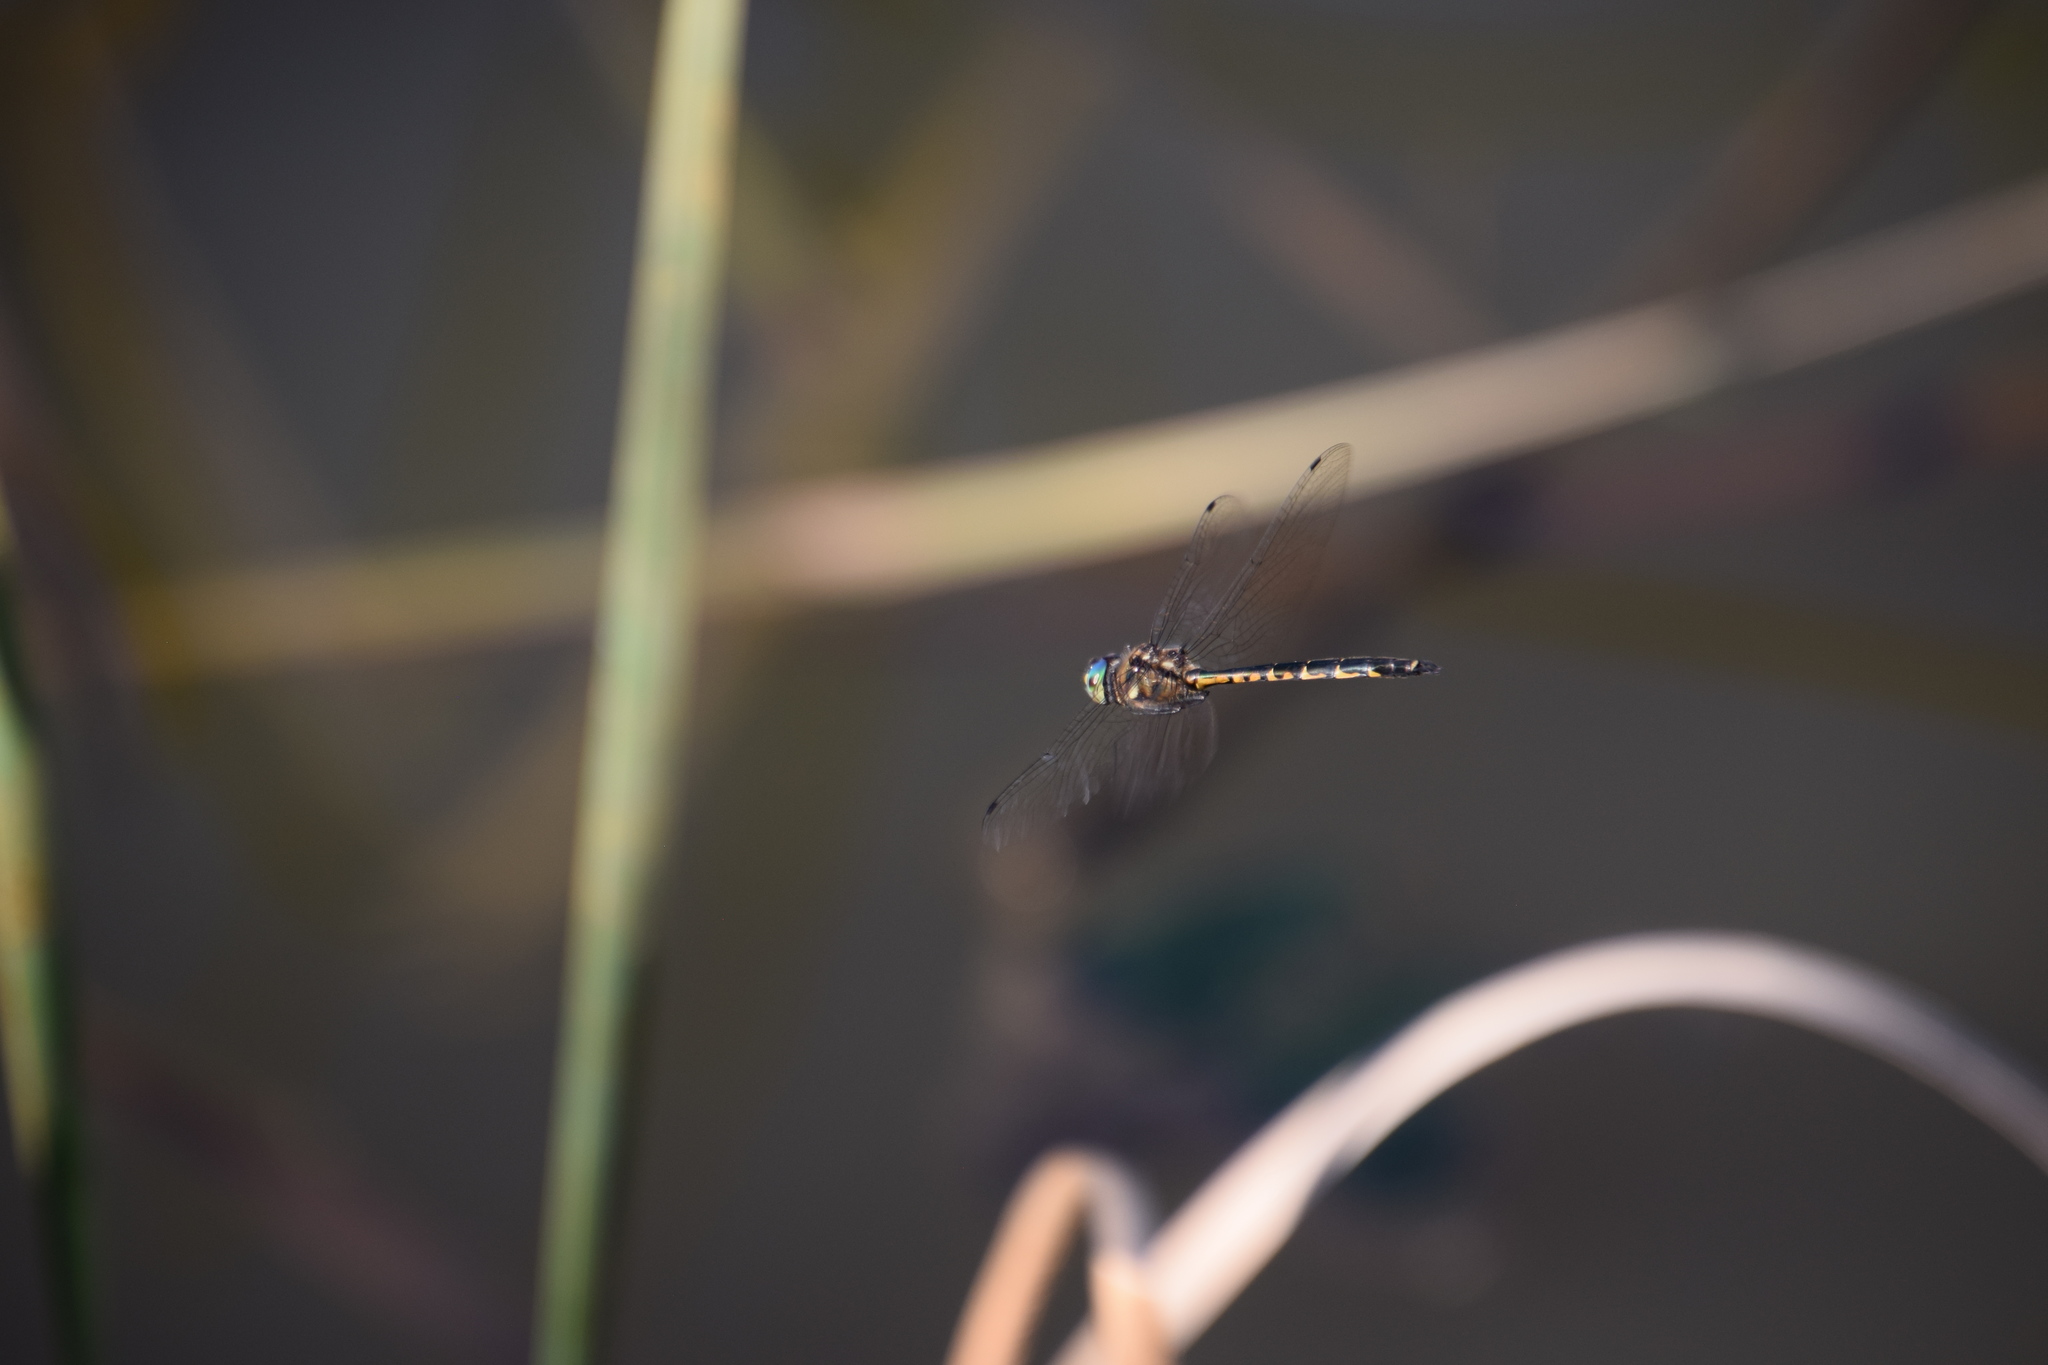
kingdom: Animalia
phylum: Arthropoda
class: Insecta
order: Odonata
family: Corduliidae
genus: Hemicordulia
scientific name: Hemicordulia australiae
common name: Sentry dragonfly
